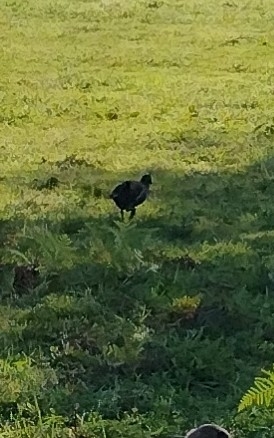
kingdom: Animalia
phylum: Chordata
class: Aves
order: Gruiformes
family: Rallidae
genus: Gallinula
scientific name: Gallinula chloropus
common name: Common moorhen
